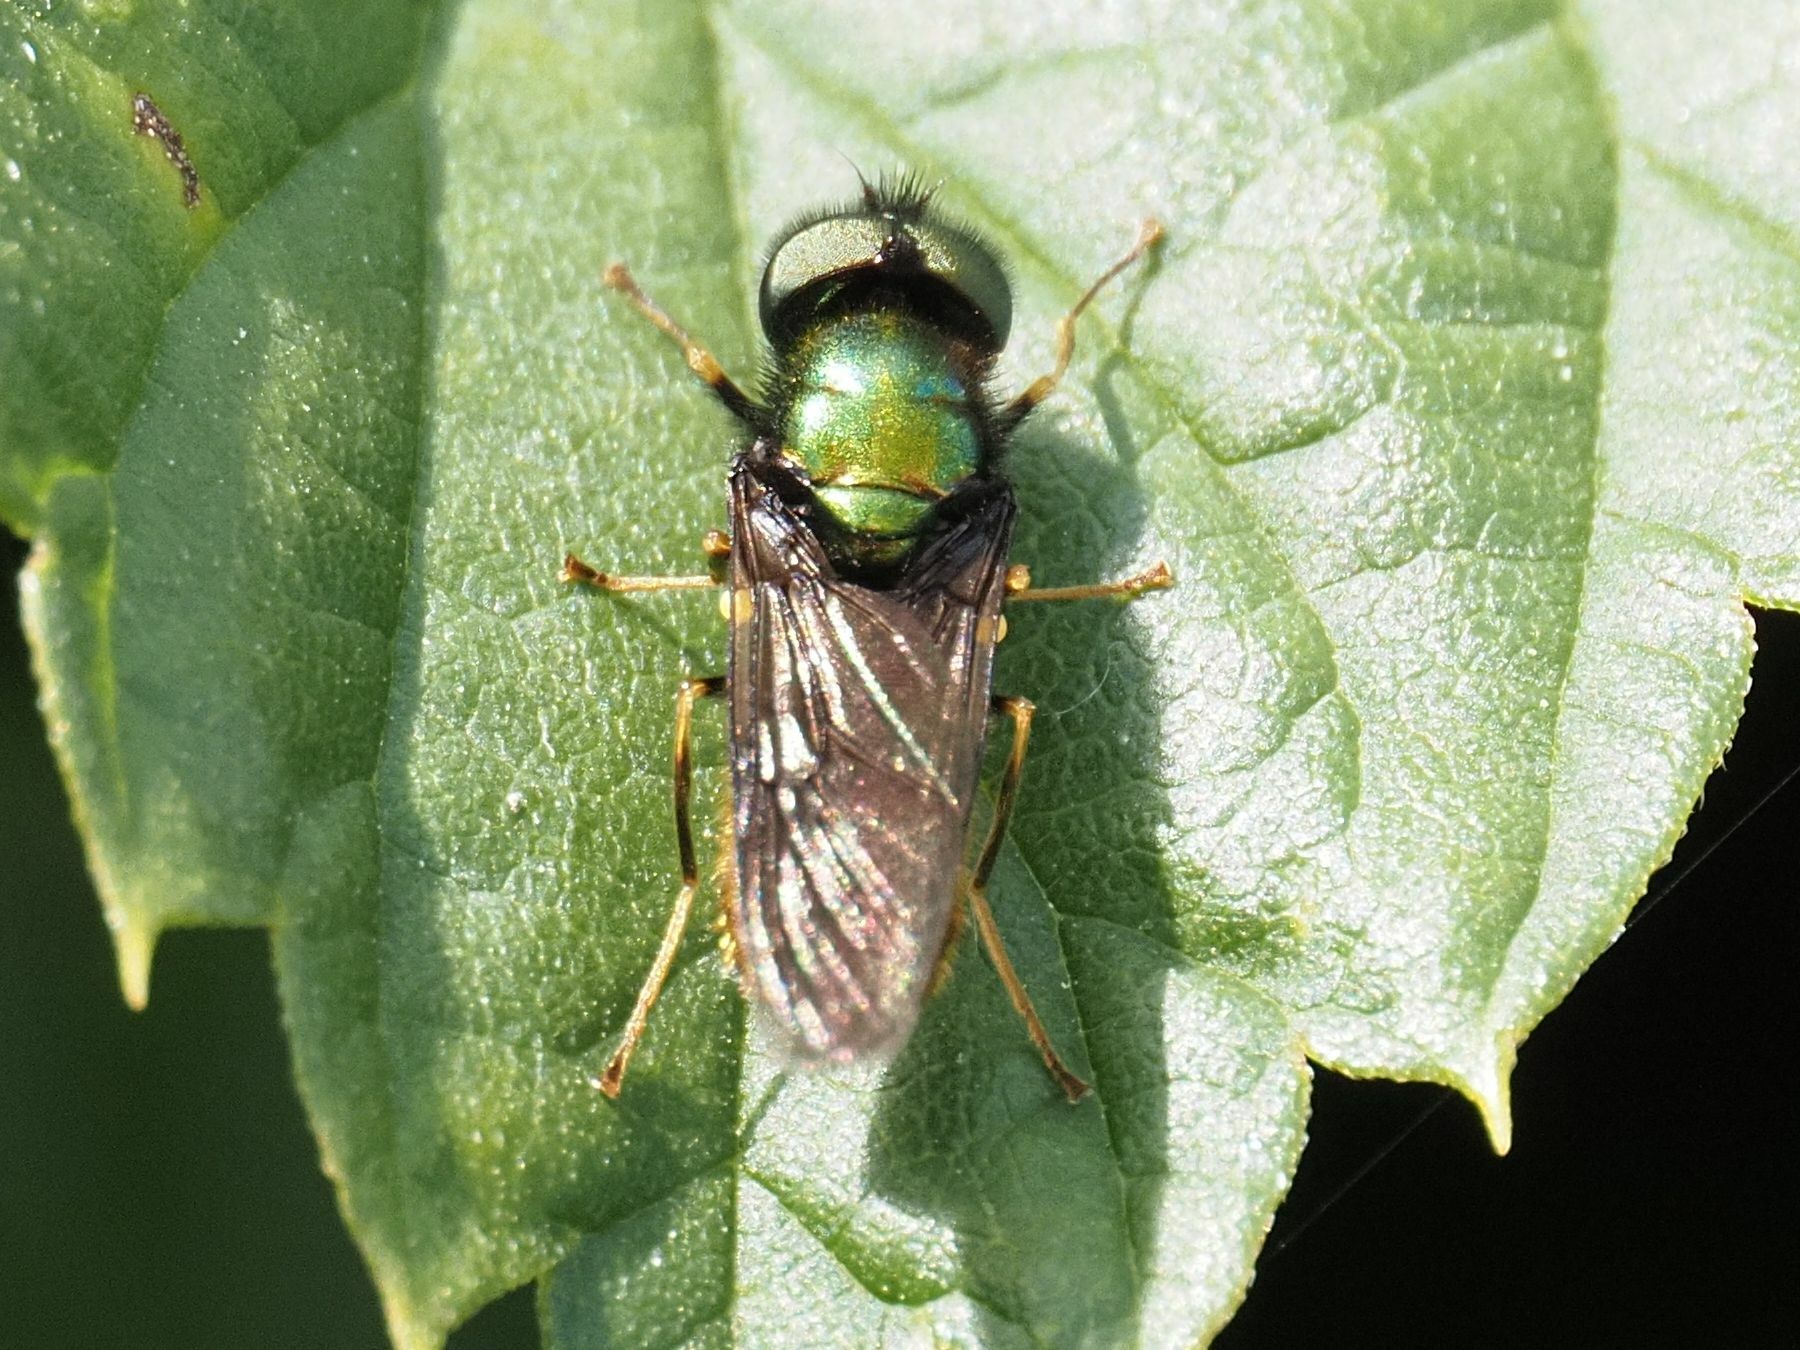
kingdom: Animalia
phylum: Arthropoda
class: Insecta
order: Diptera
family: Stratiomyidae
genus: Chloromyia
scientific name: Chloromyia speciosa
